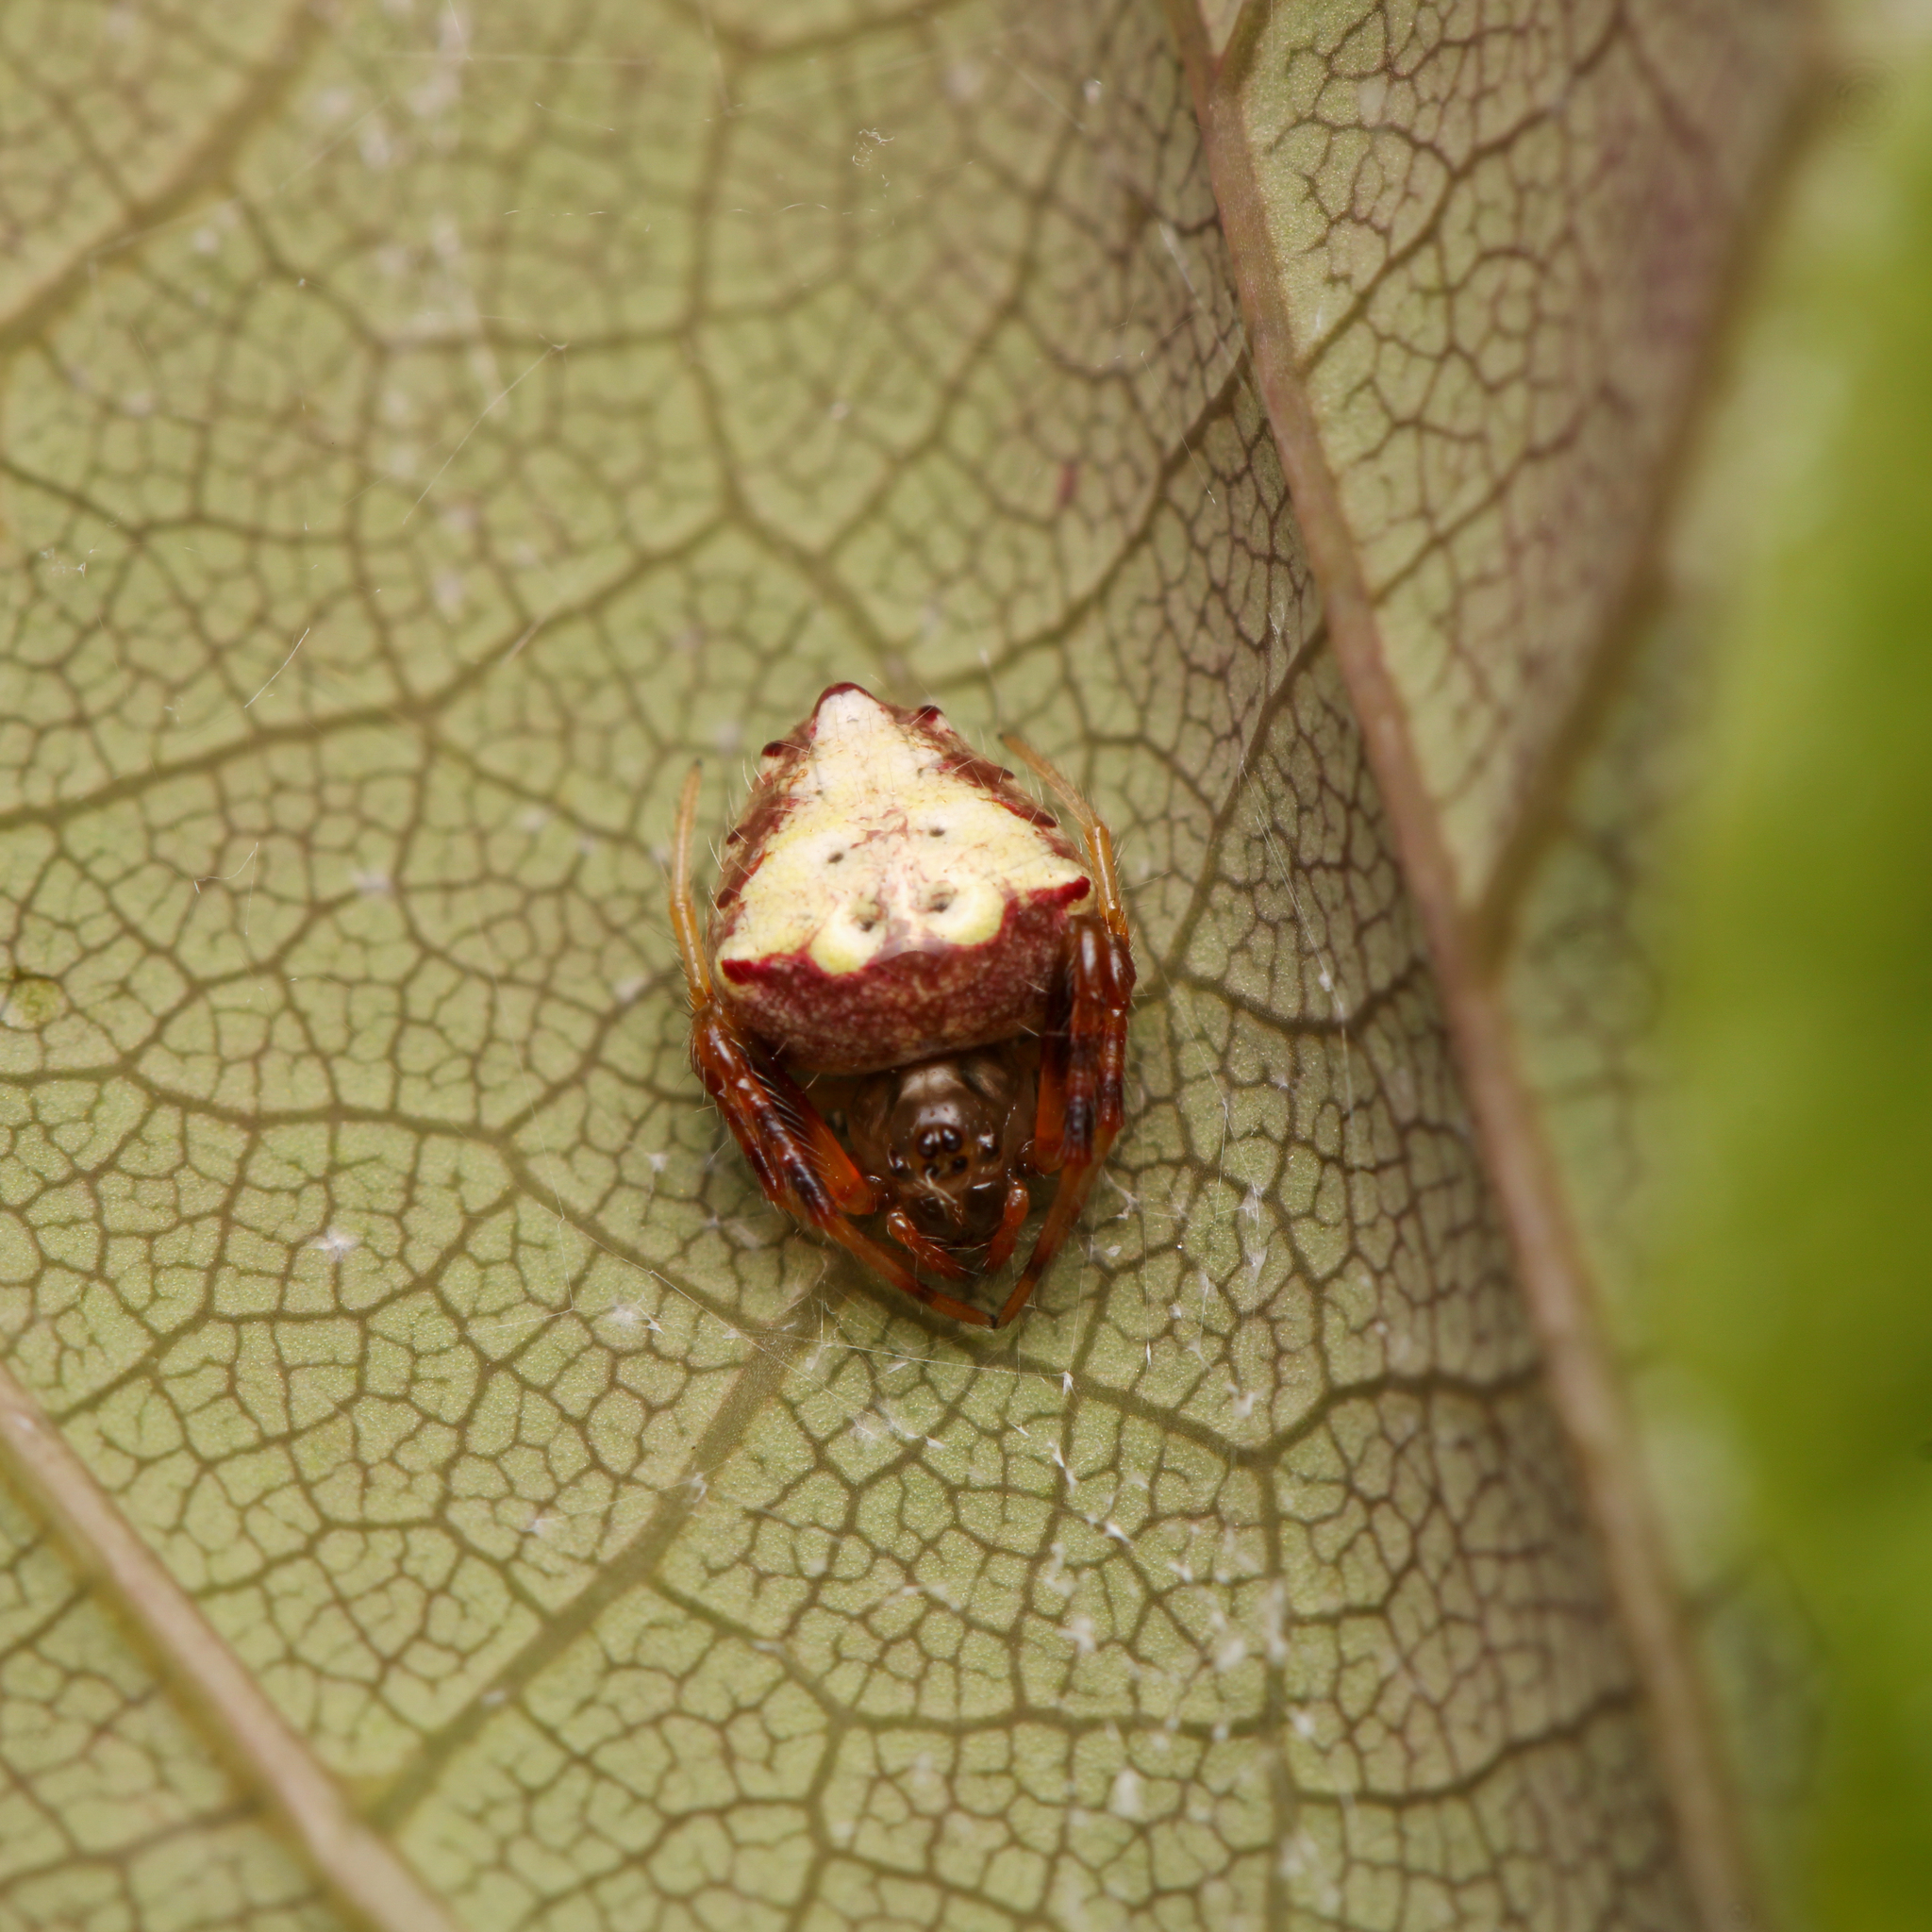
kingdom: Animalia
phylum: Arthropoda
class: Arachnida
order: Araneae
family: Araneidae
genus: Verrucosa
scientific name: Verrucosa arenata
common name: Orb weavers
